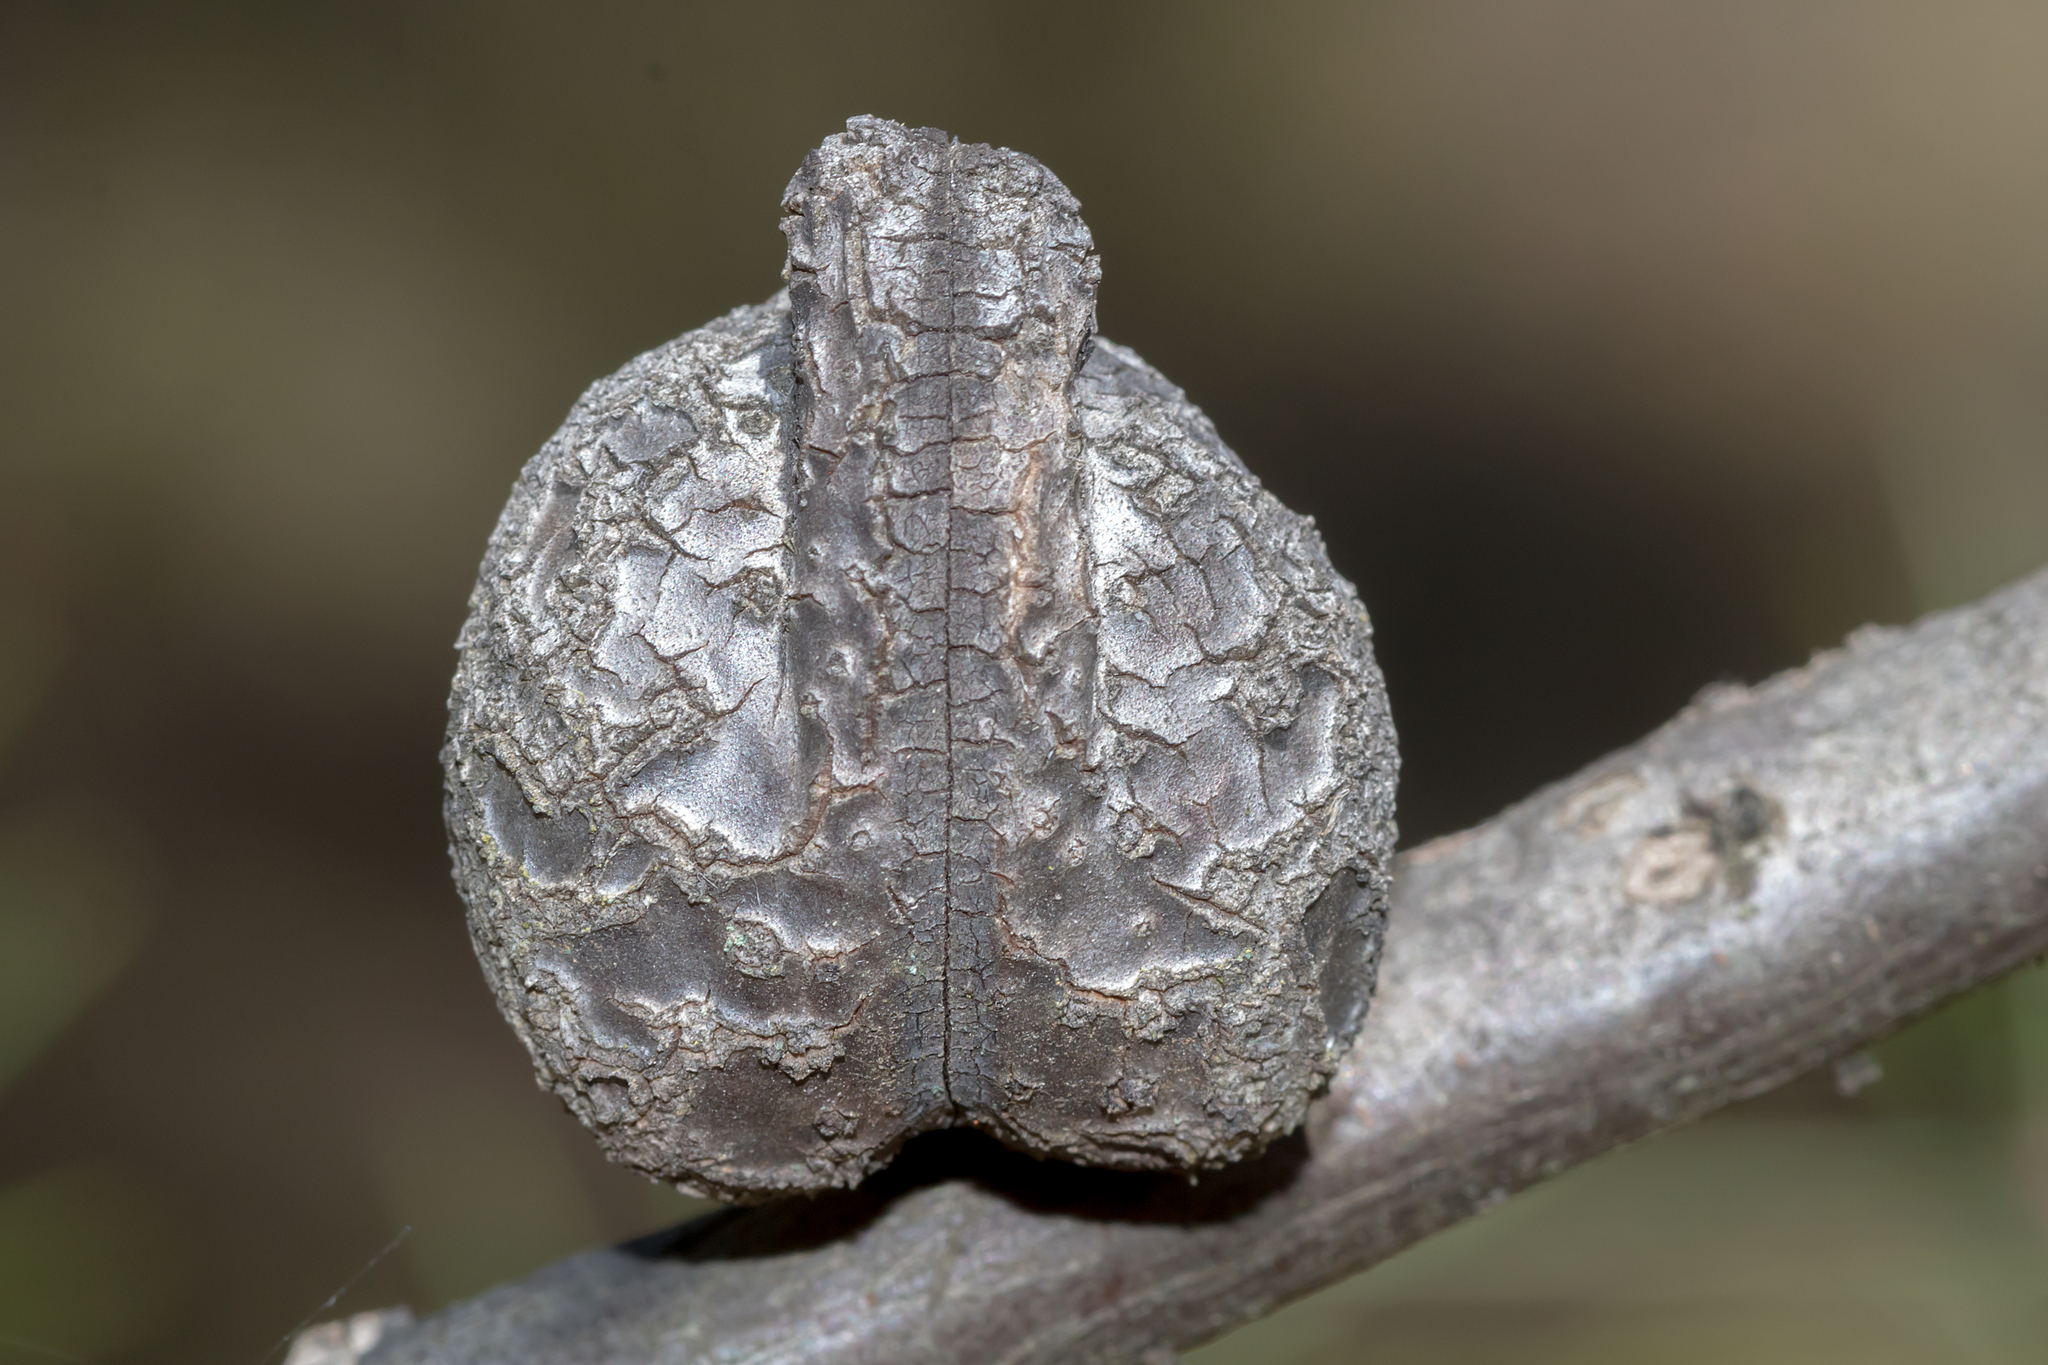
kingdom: Plantae
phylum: Tracheophyta
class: Magnoliopsida
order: Proteales
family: Proteaceae
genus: Hakea
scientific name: Hakea decurrens
